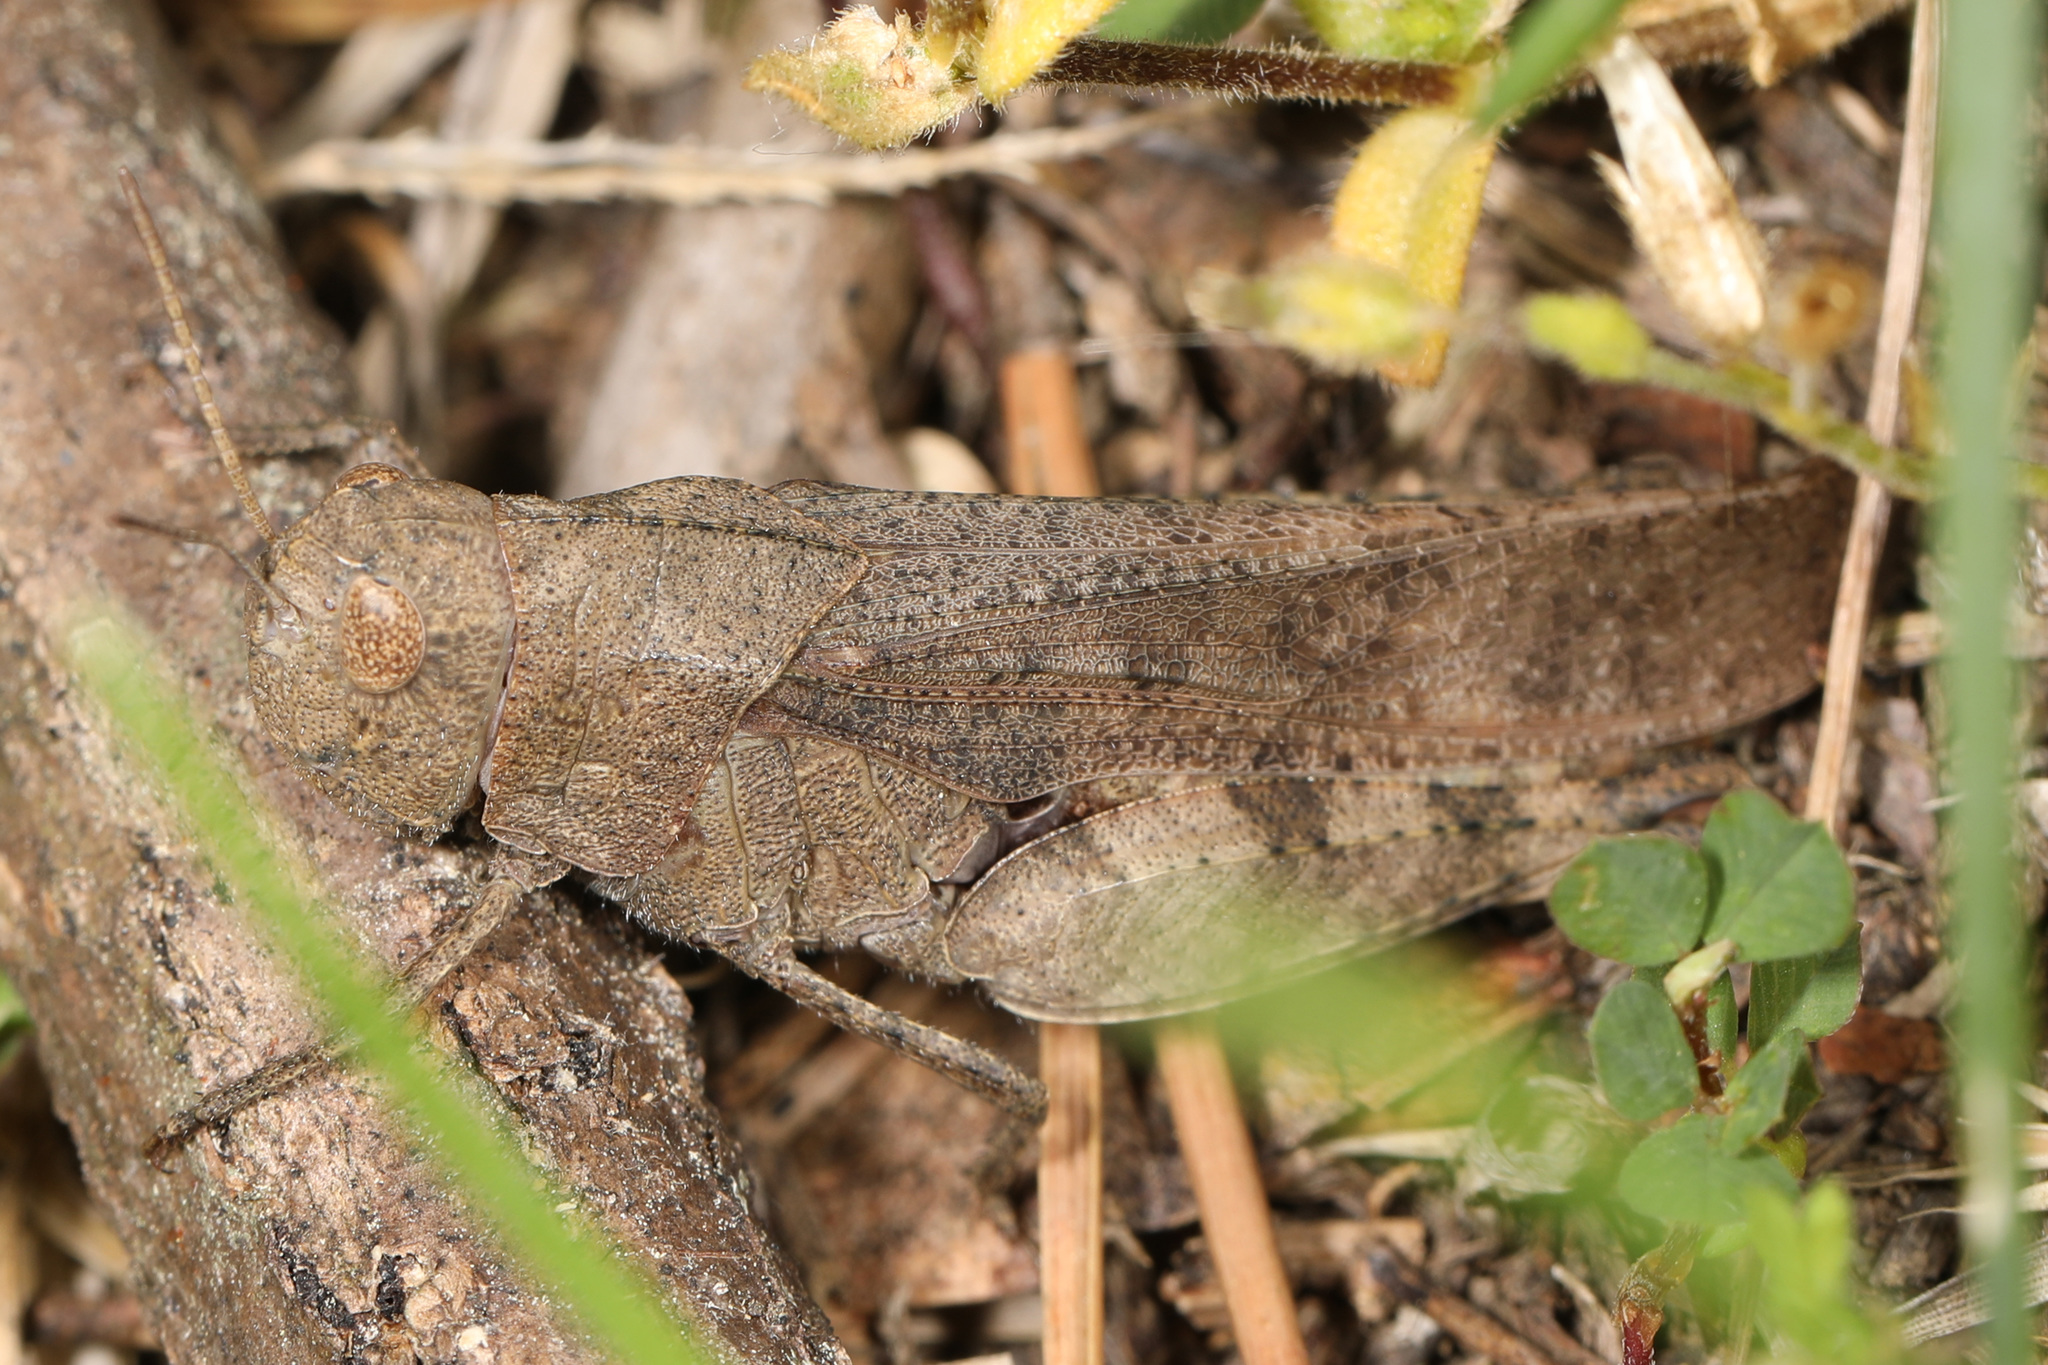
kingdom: Animalia
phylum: Arthropoda
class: Insecta
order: Orthoptera
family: Acrididae
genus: Arphia
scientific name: Arphia sulphurea
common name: Spring yellow-winged locust
